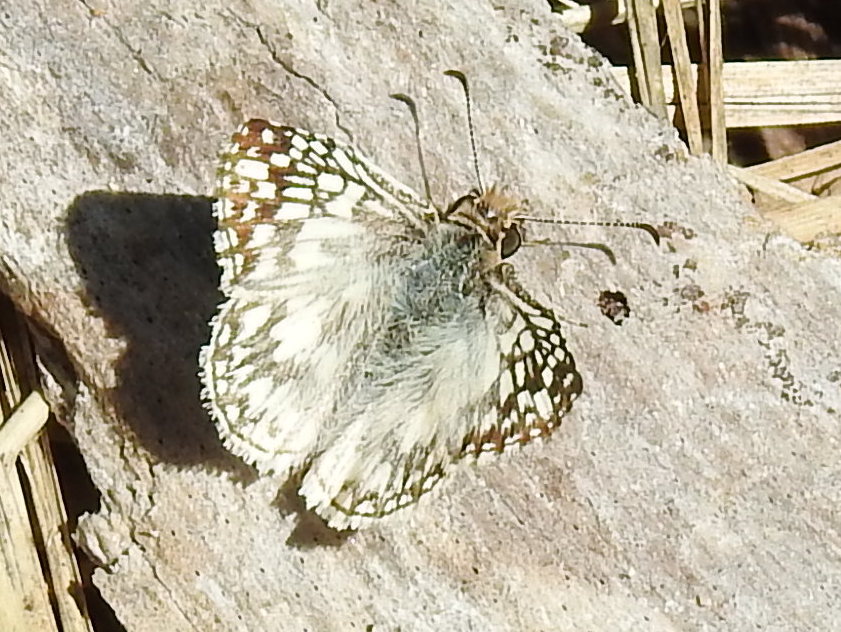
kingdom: Animalia
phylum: Arthropoda
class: Insecta
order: Lepidoptera
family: Hesperiidae
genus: Pyrgus
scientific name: Pyrgus oileus
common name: Tropical checkered-skipper
